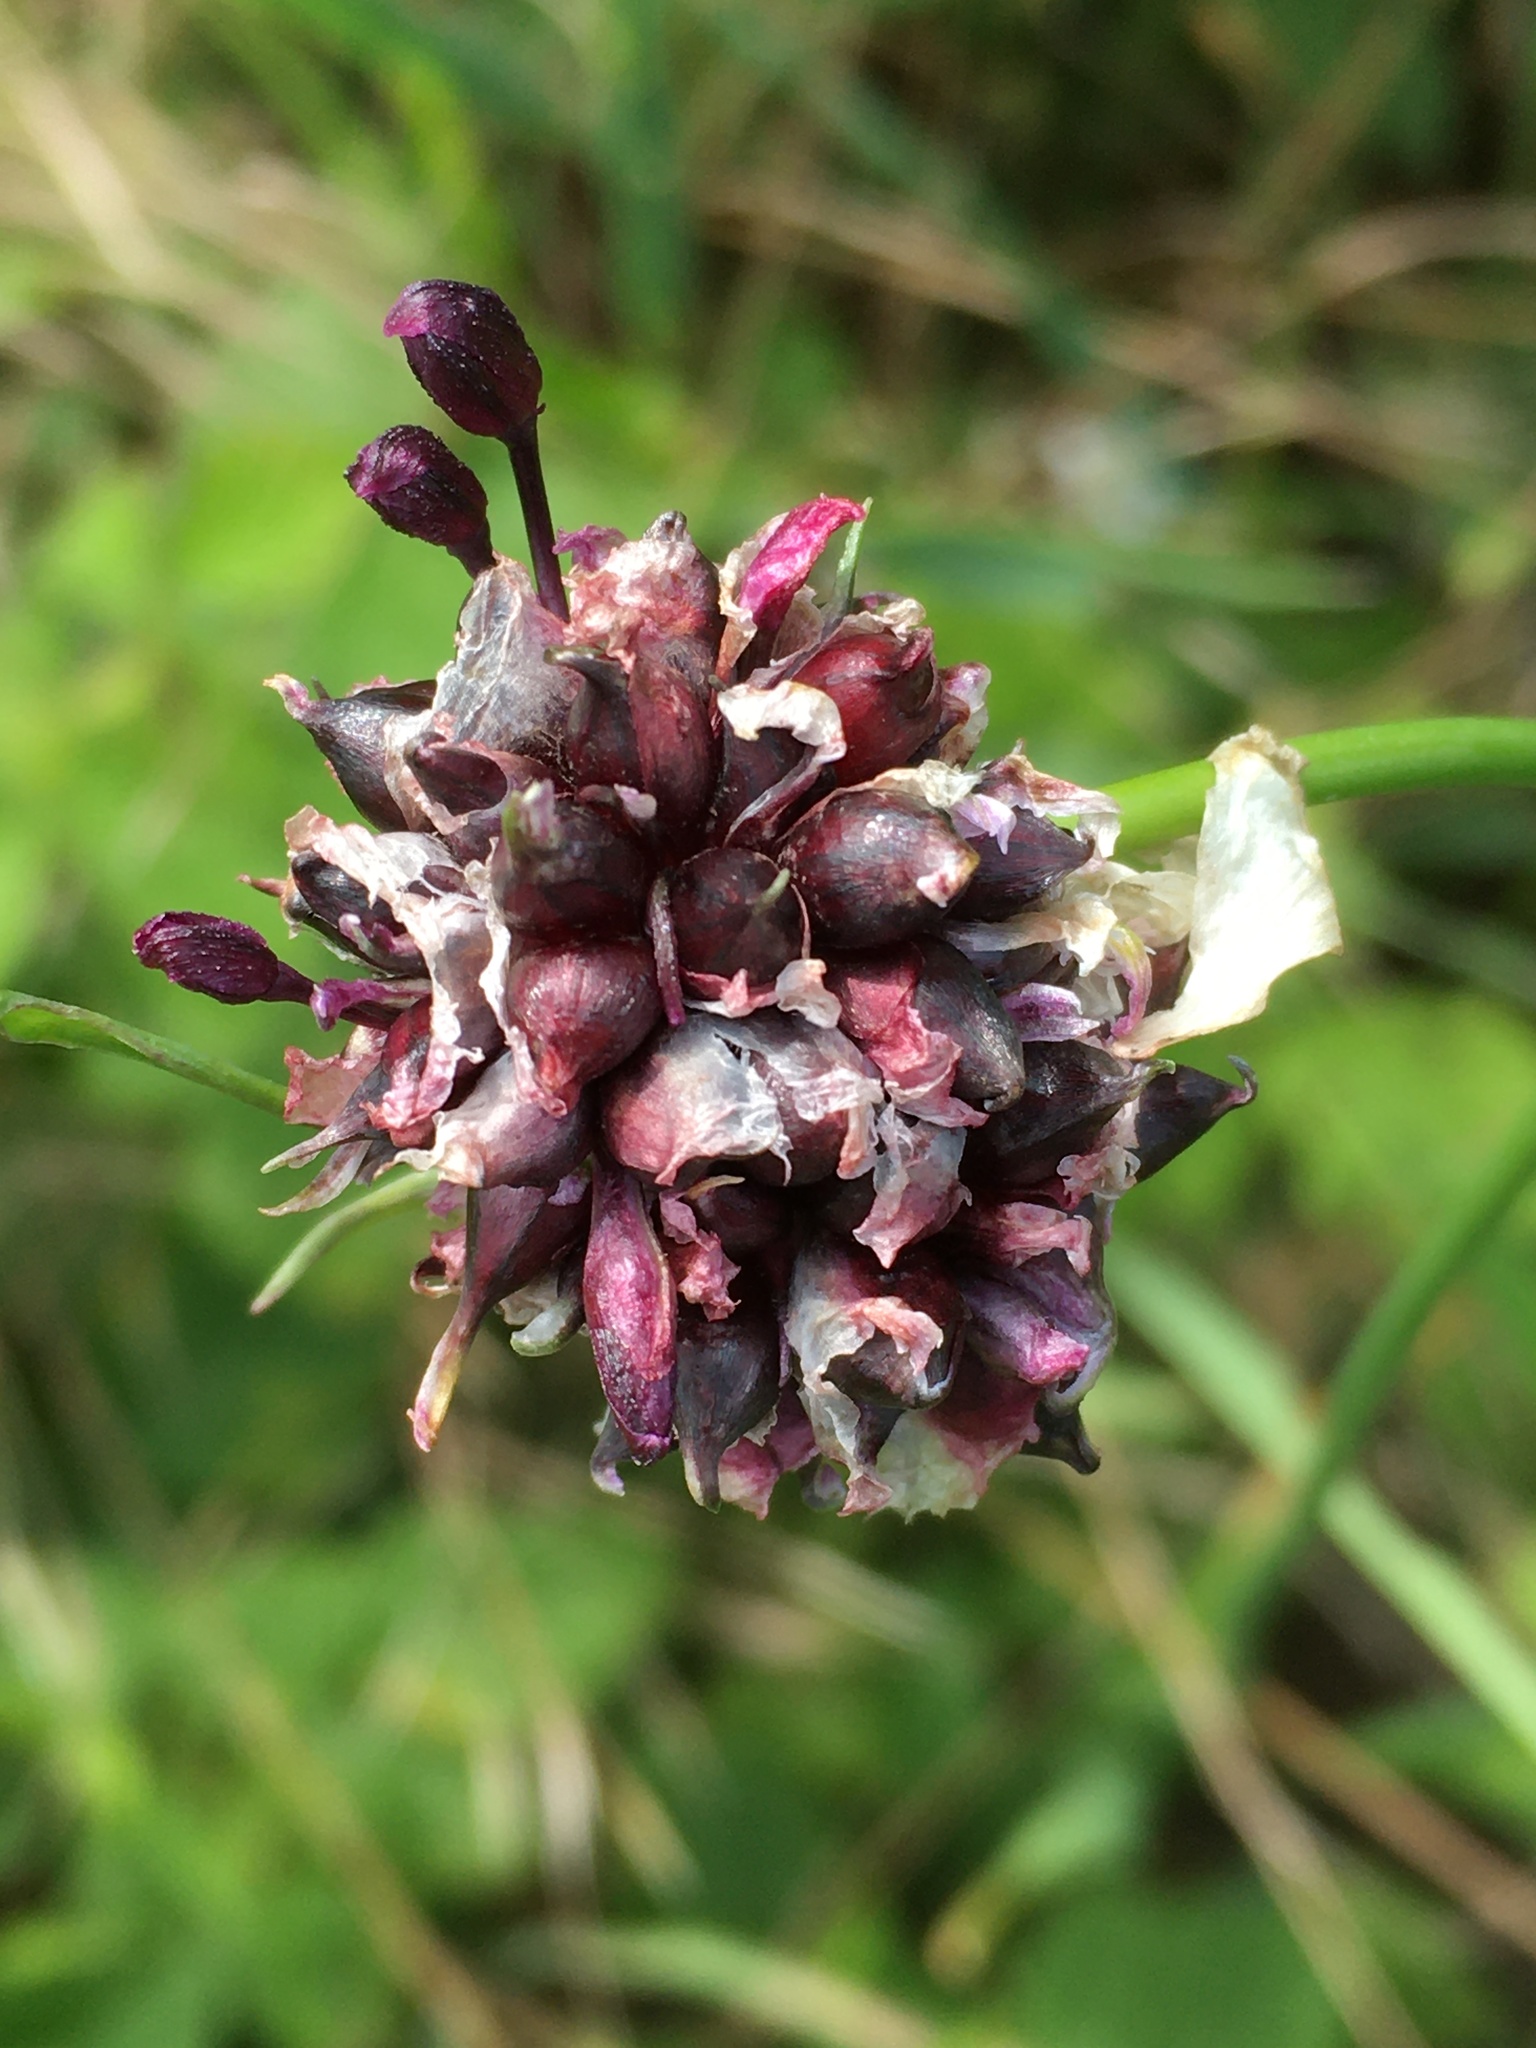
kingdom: Plantae
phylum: Tracheophyta
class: Liliopsida
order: Asparagales
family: Amaryllidaceae
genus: Allium
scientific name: Allium scorodoprasum
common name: Sand leek
